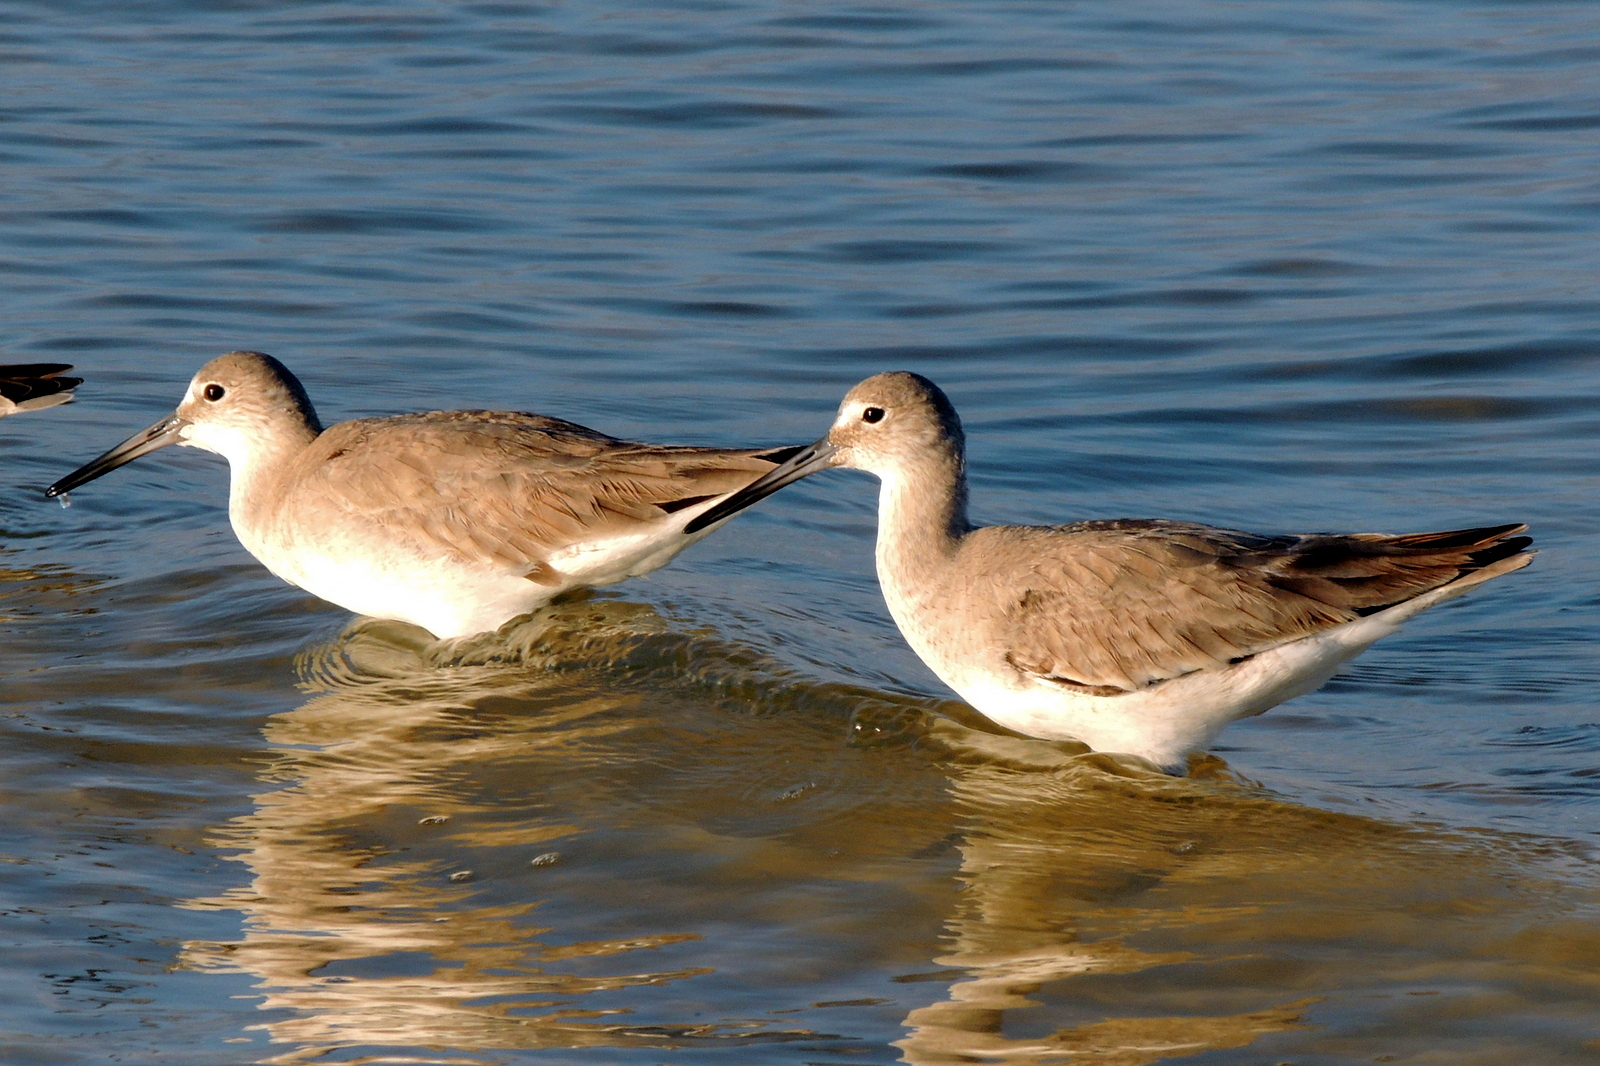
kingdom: Animalia
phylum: Chordata
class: Aves
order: Charadriiformes
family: Scolopacidae
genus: Tringa
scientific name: Tringa semipalmata
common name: Willet
